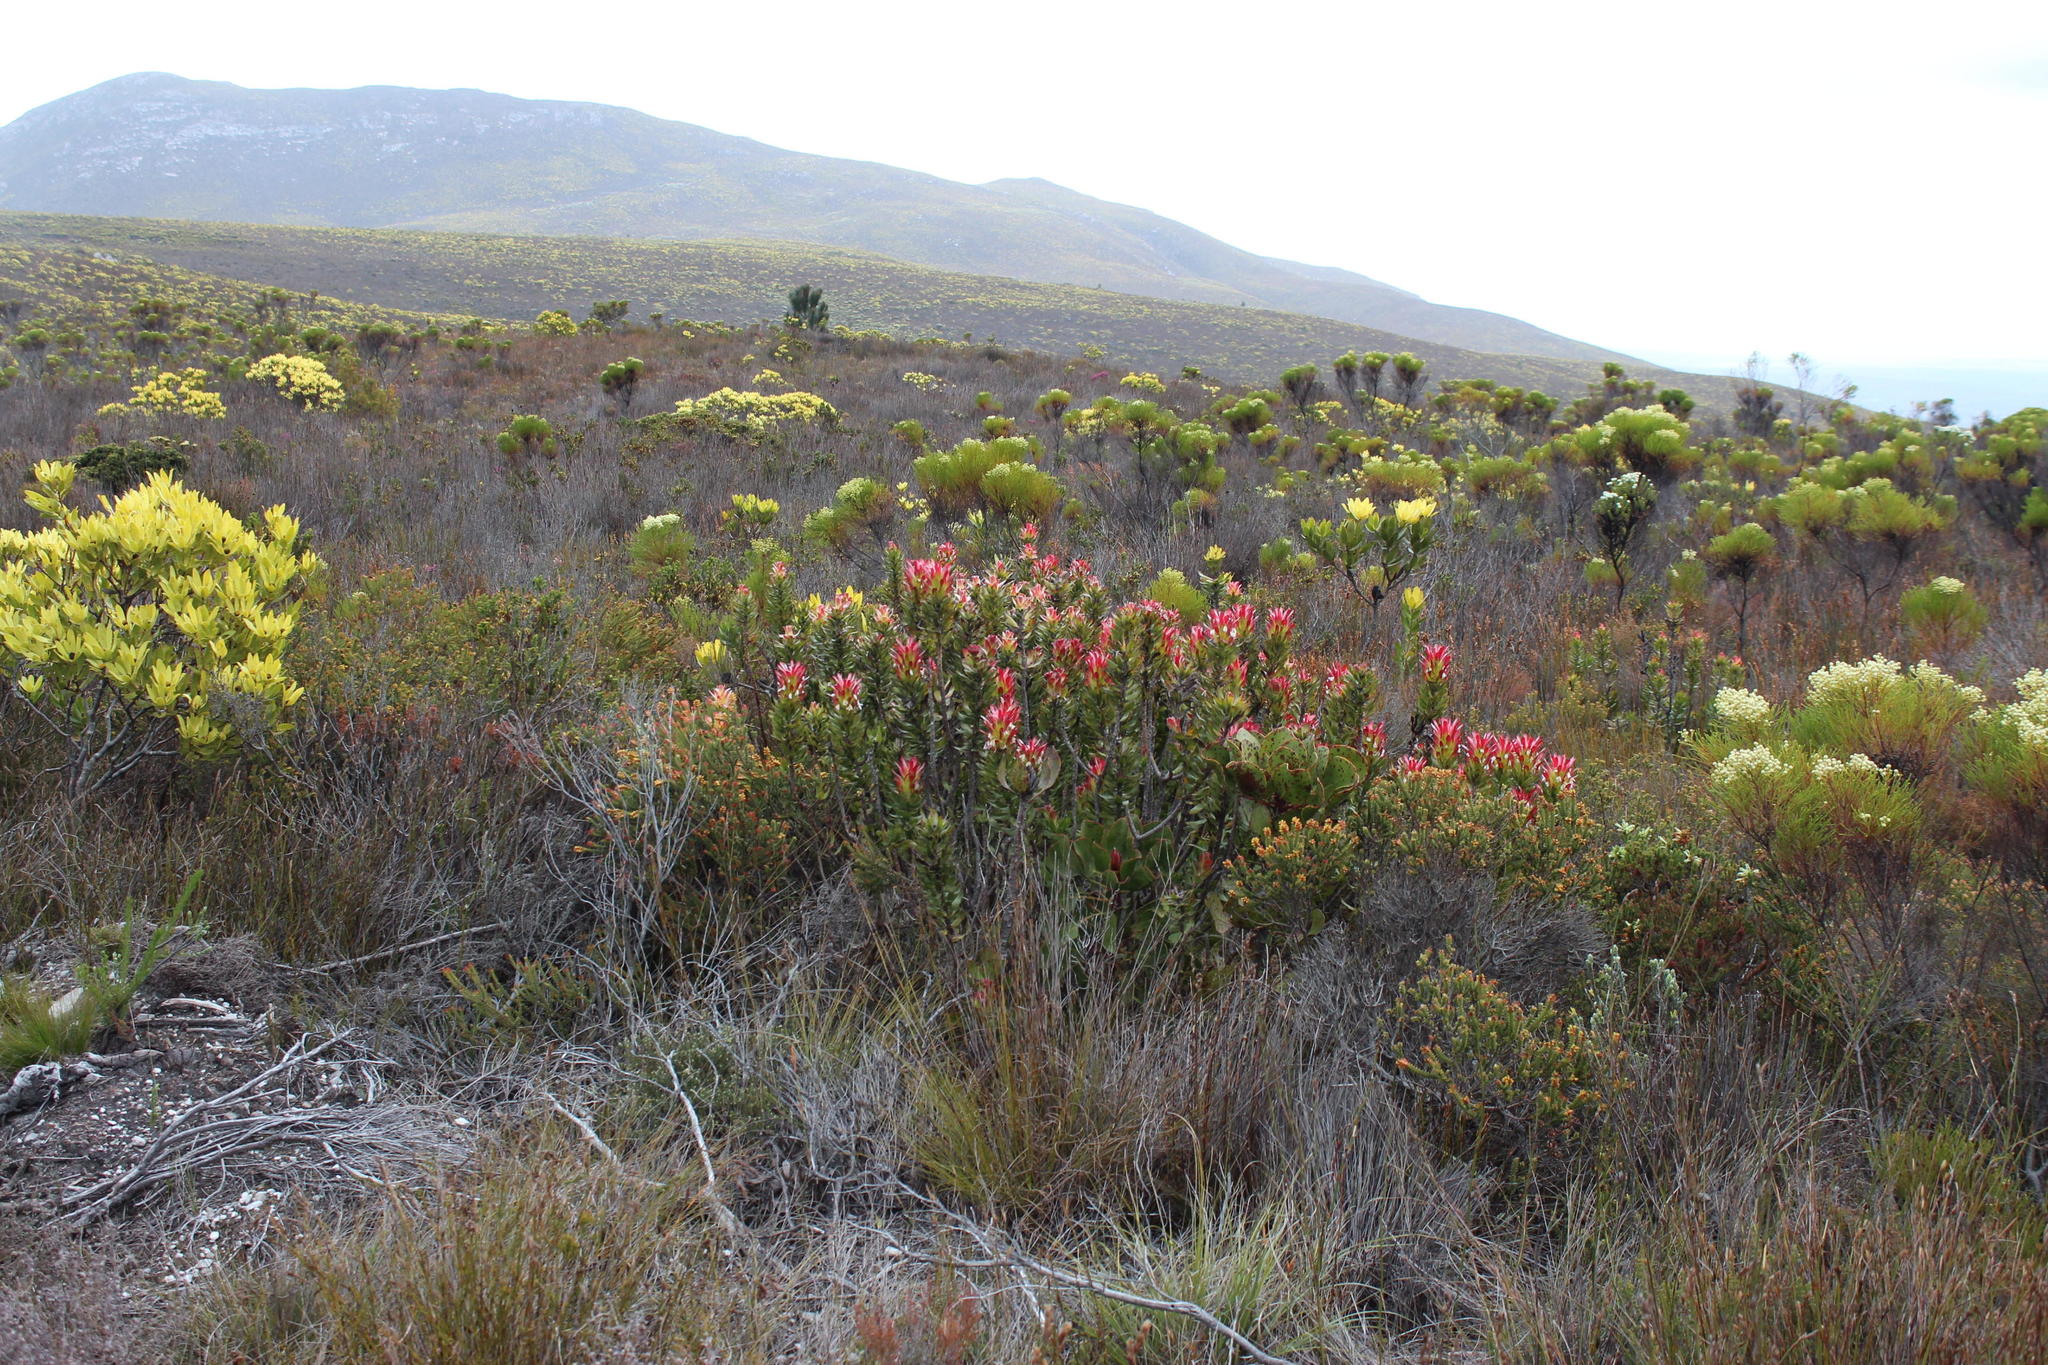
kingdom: Plantae
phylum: Tracheophyta
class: Magnoliopsida
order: Proteales
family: Proteaceae
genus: Mimetes
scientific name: Mimetes cucullatus
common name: Common pagoda
